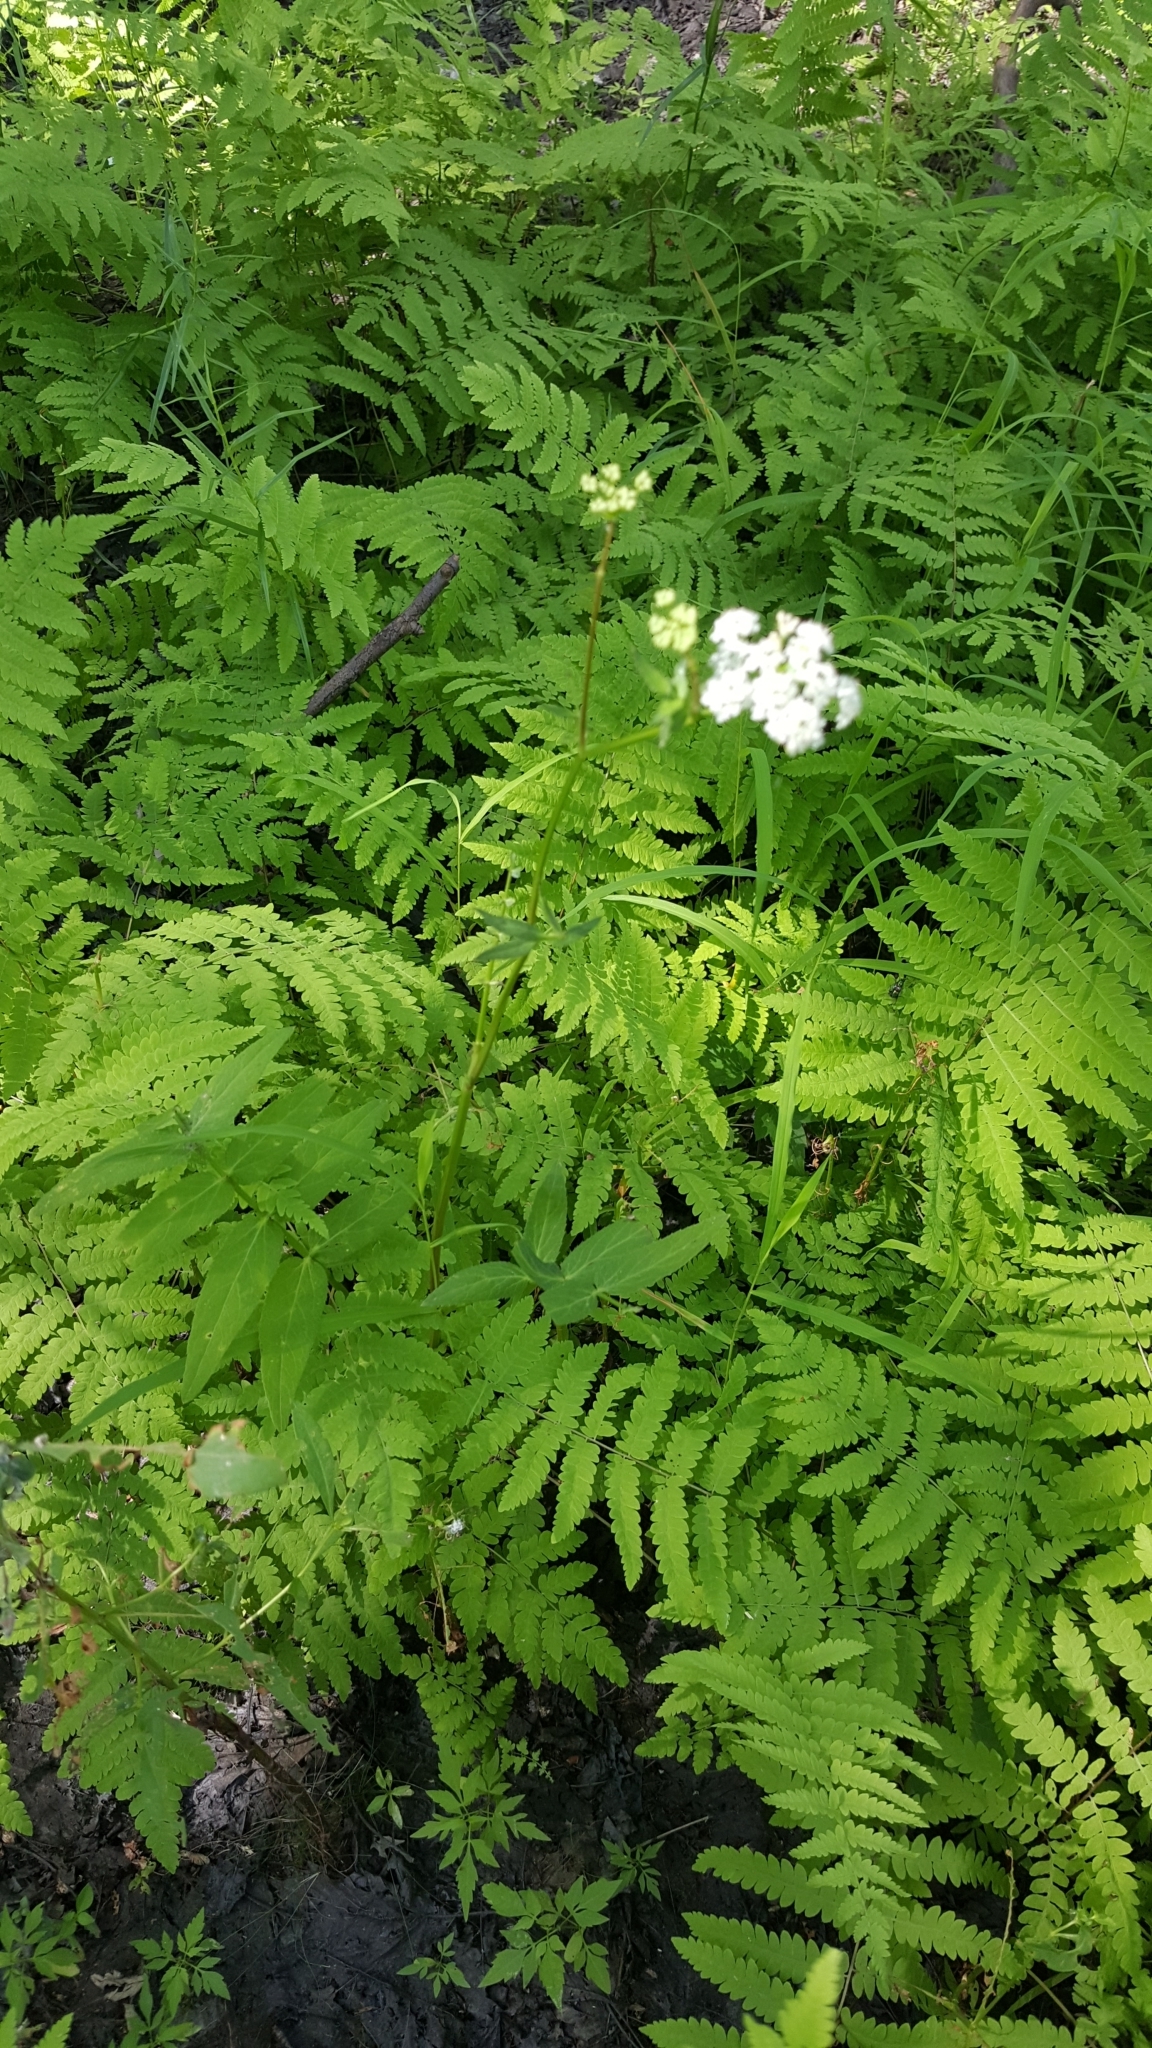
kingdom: Plantae
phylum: Tracheophyta
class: Magnoliopsida
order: Apiales
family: Apiaceae
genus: Sium
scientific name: Sium suave
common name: Hemlock water-parsnip
